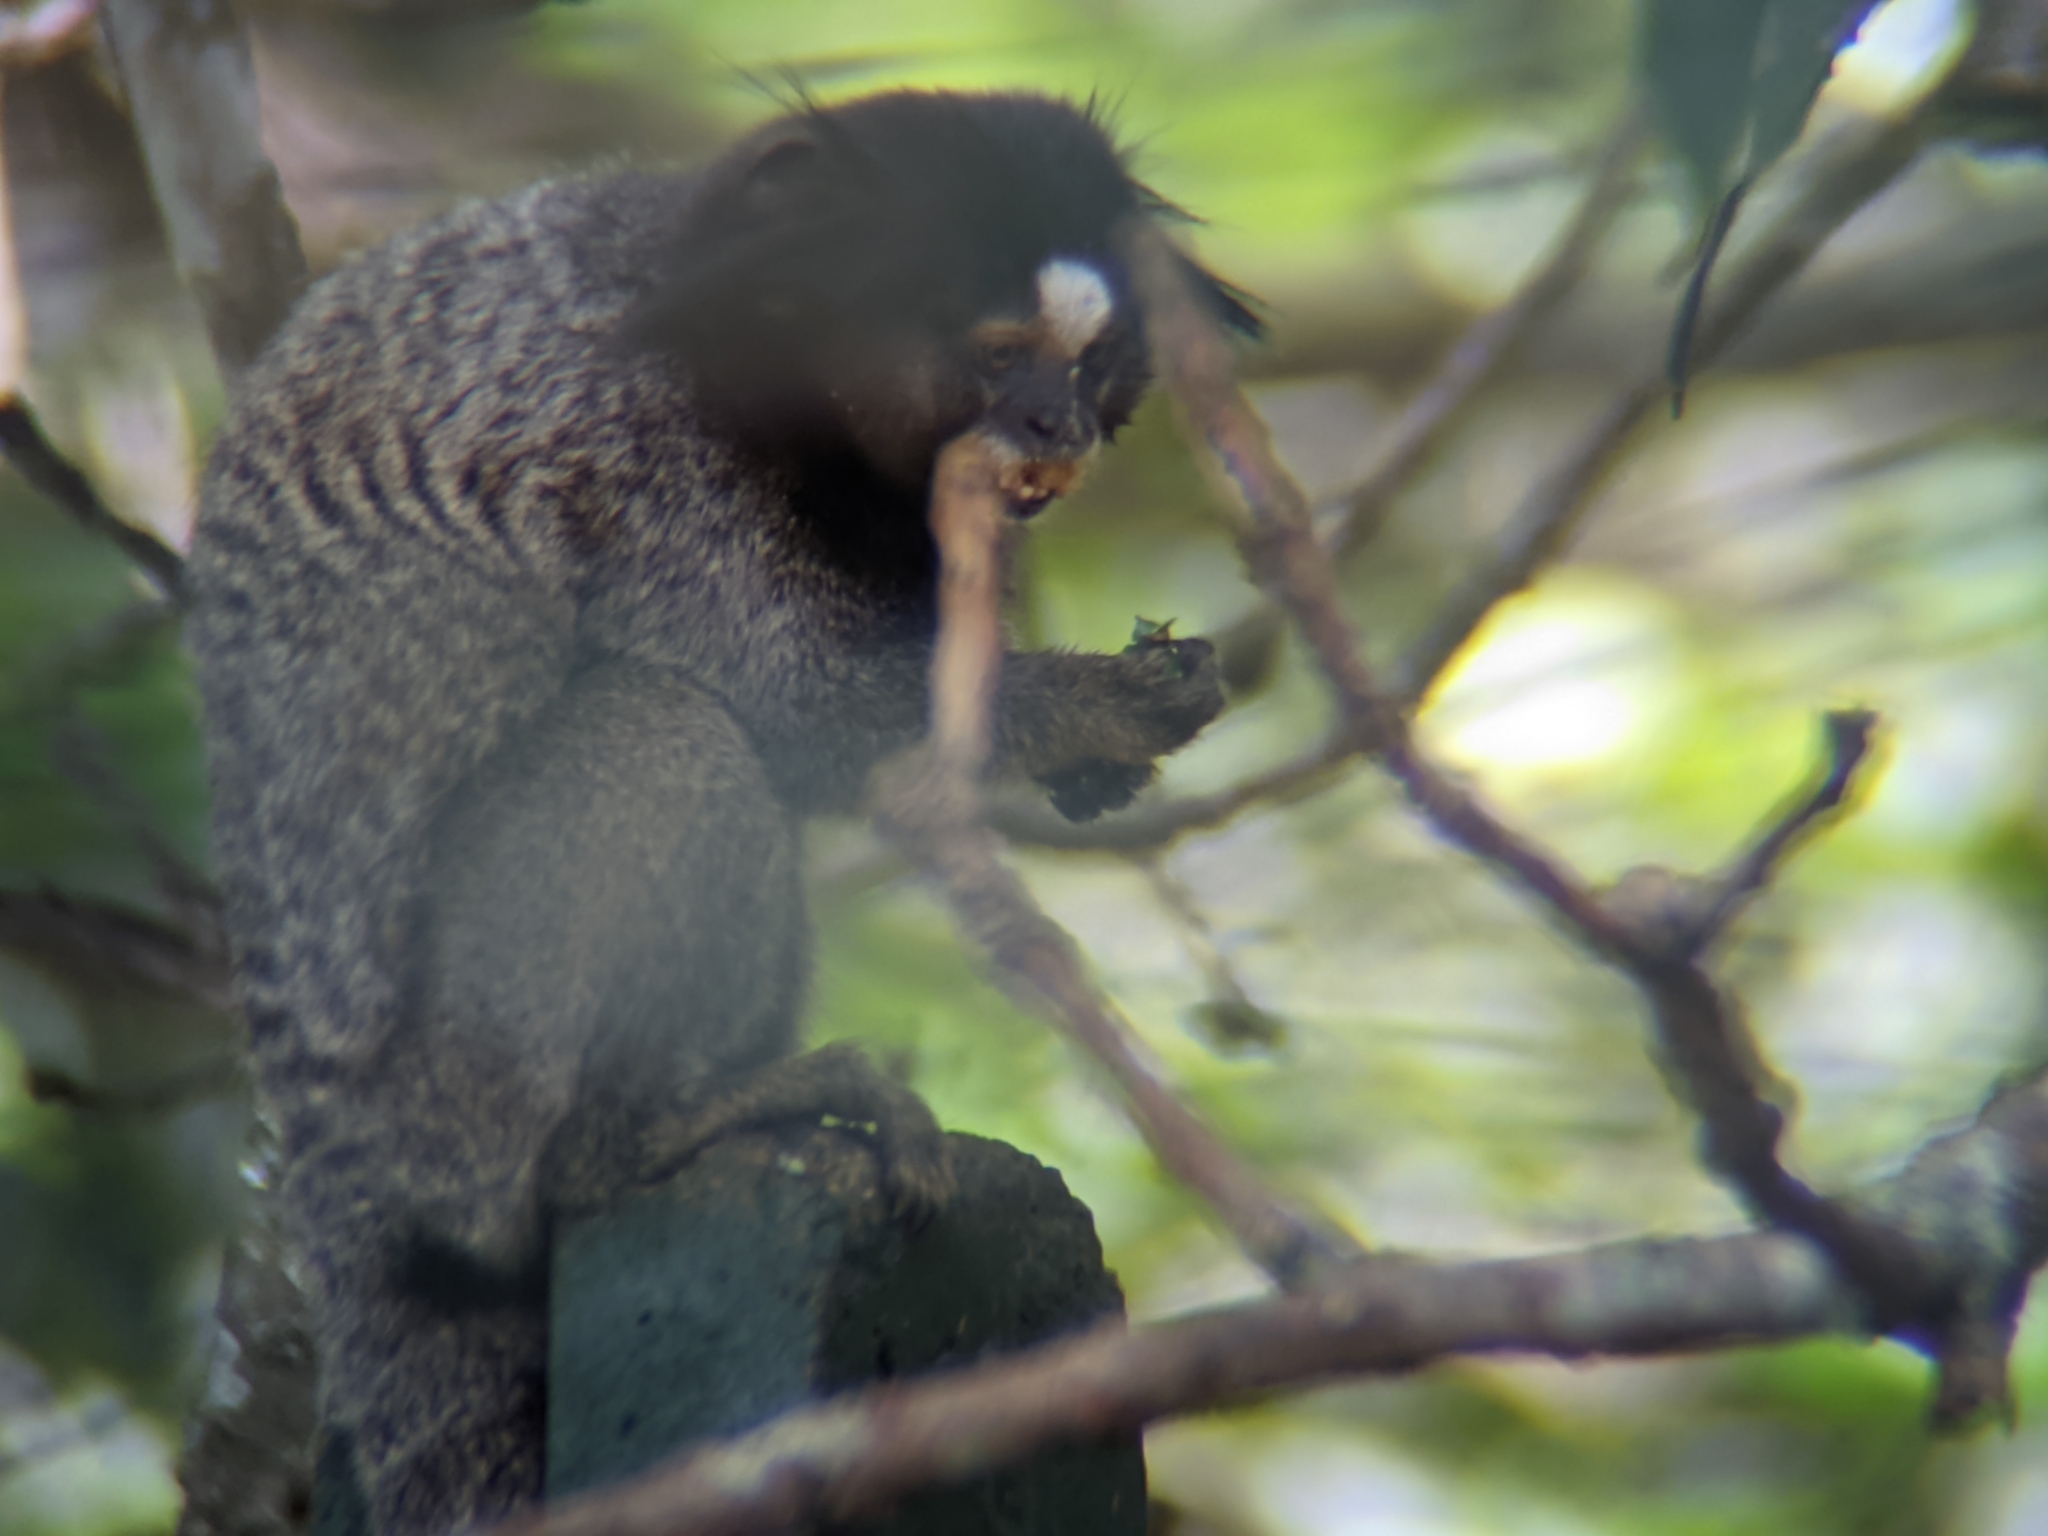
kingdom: Animalia
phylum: Chordata
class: Mammalia
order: Primates
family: Callitrichidae
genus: Callithrix
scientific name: Callithrix penicillata
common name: Black-tufted marmoset
